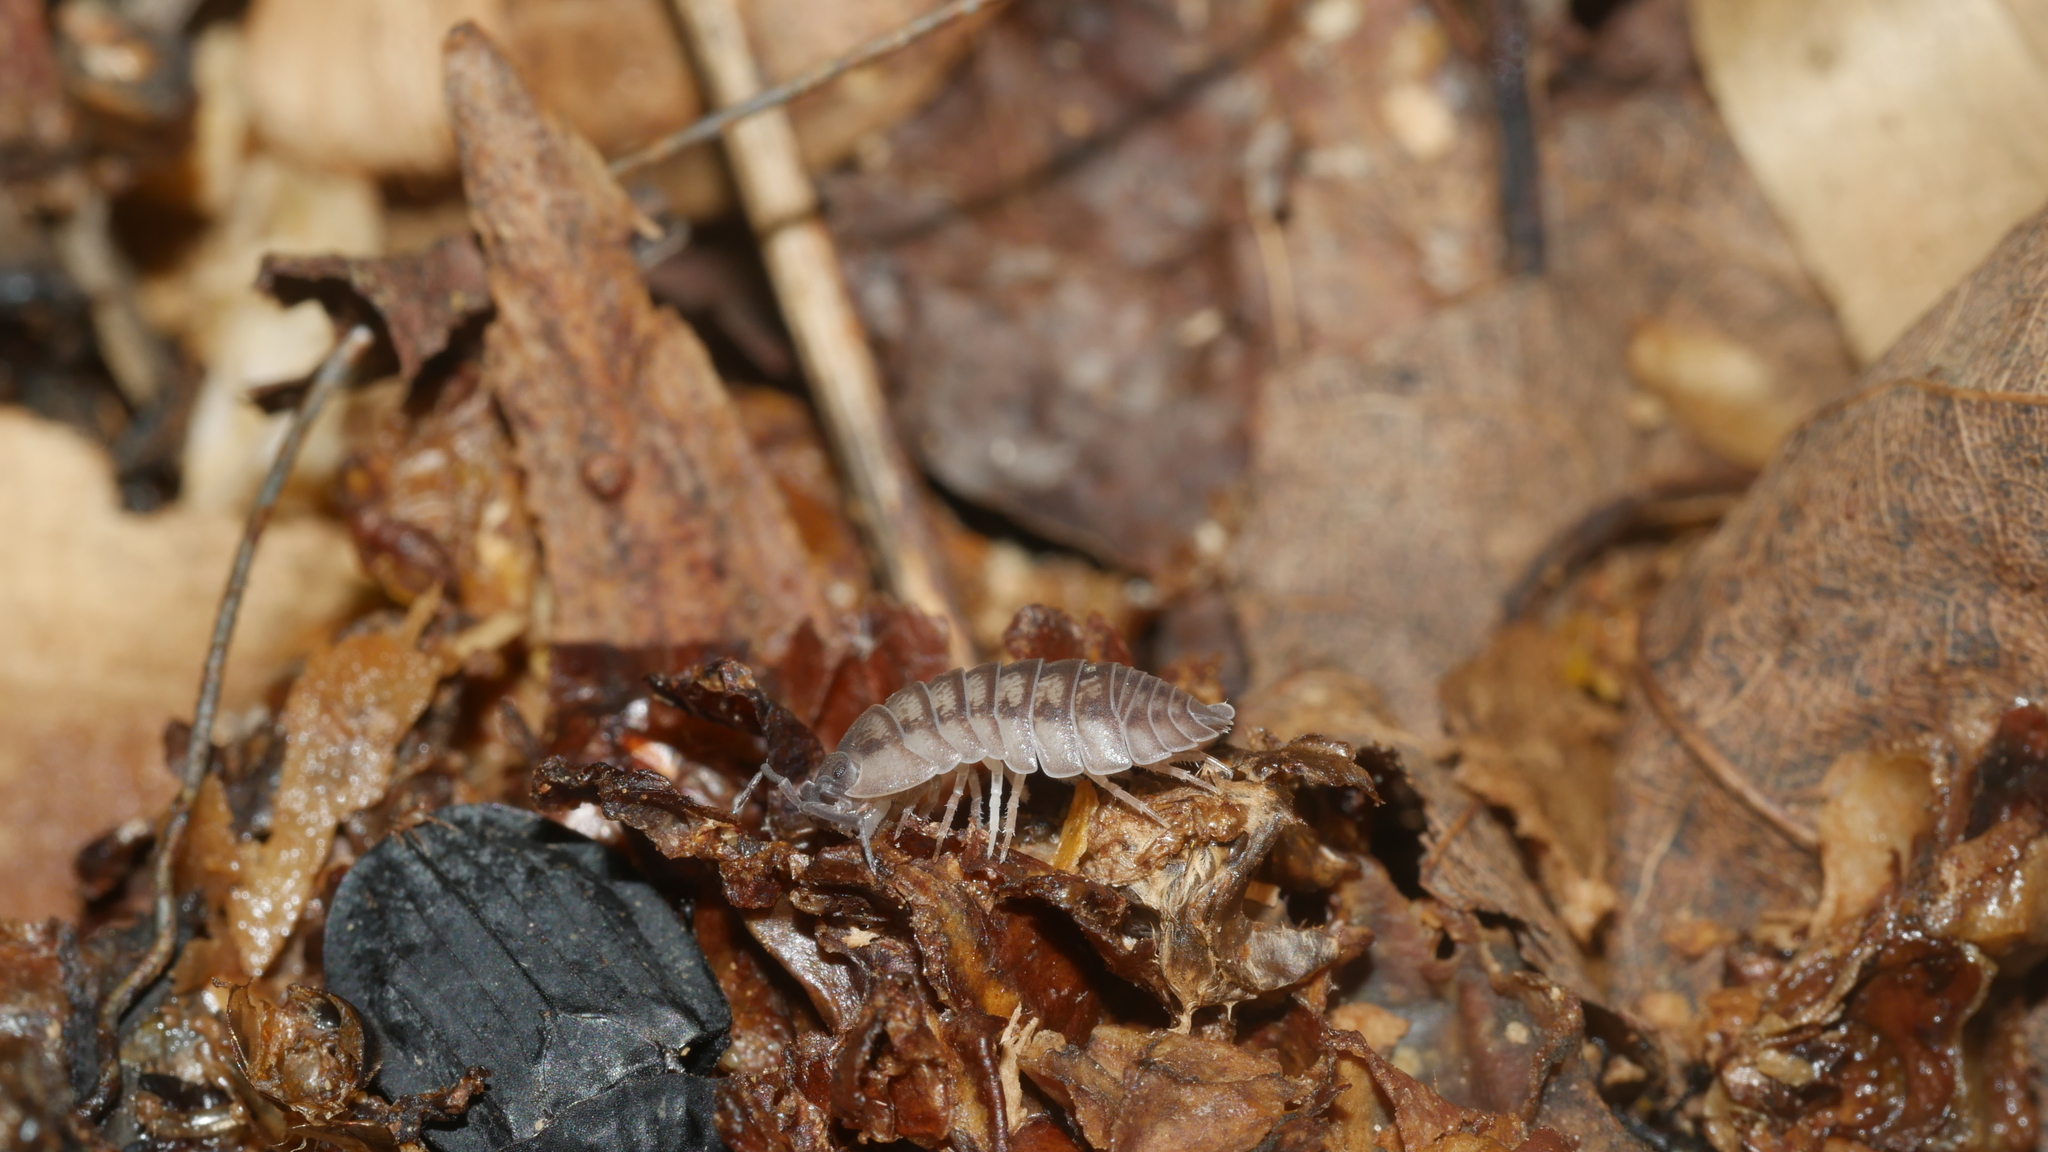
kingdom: Animalia
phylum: Arthropoda
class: Malacostraca
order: Isopoda
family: Armadillidiidae
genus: Armadillidium
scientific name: Armadillidium nasatum
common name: Isopod
